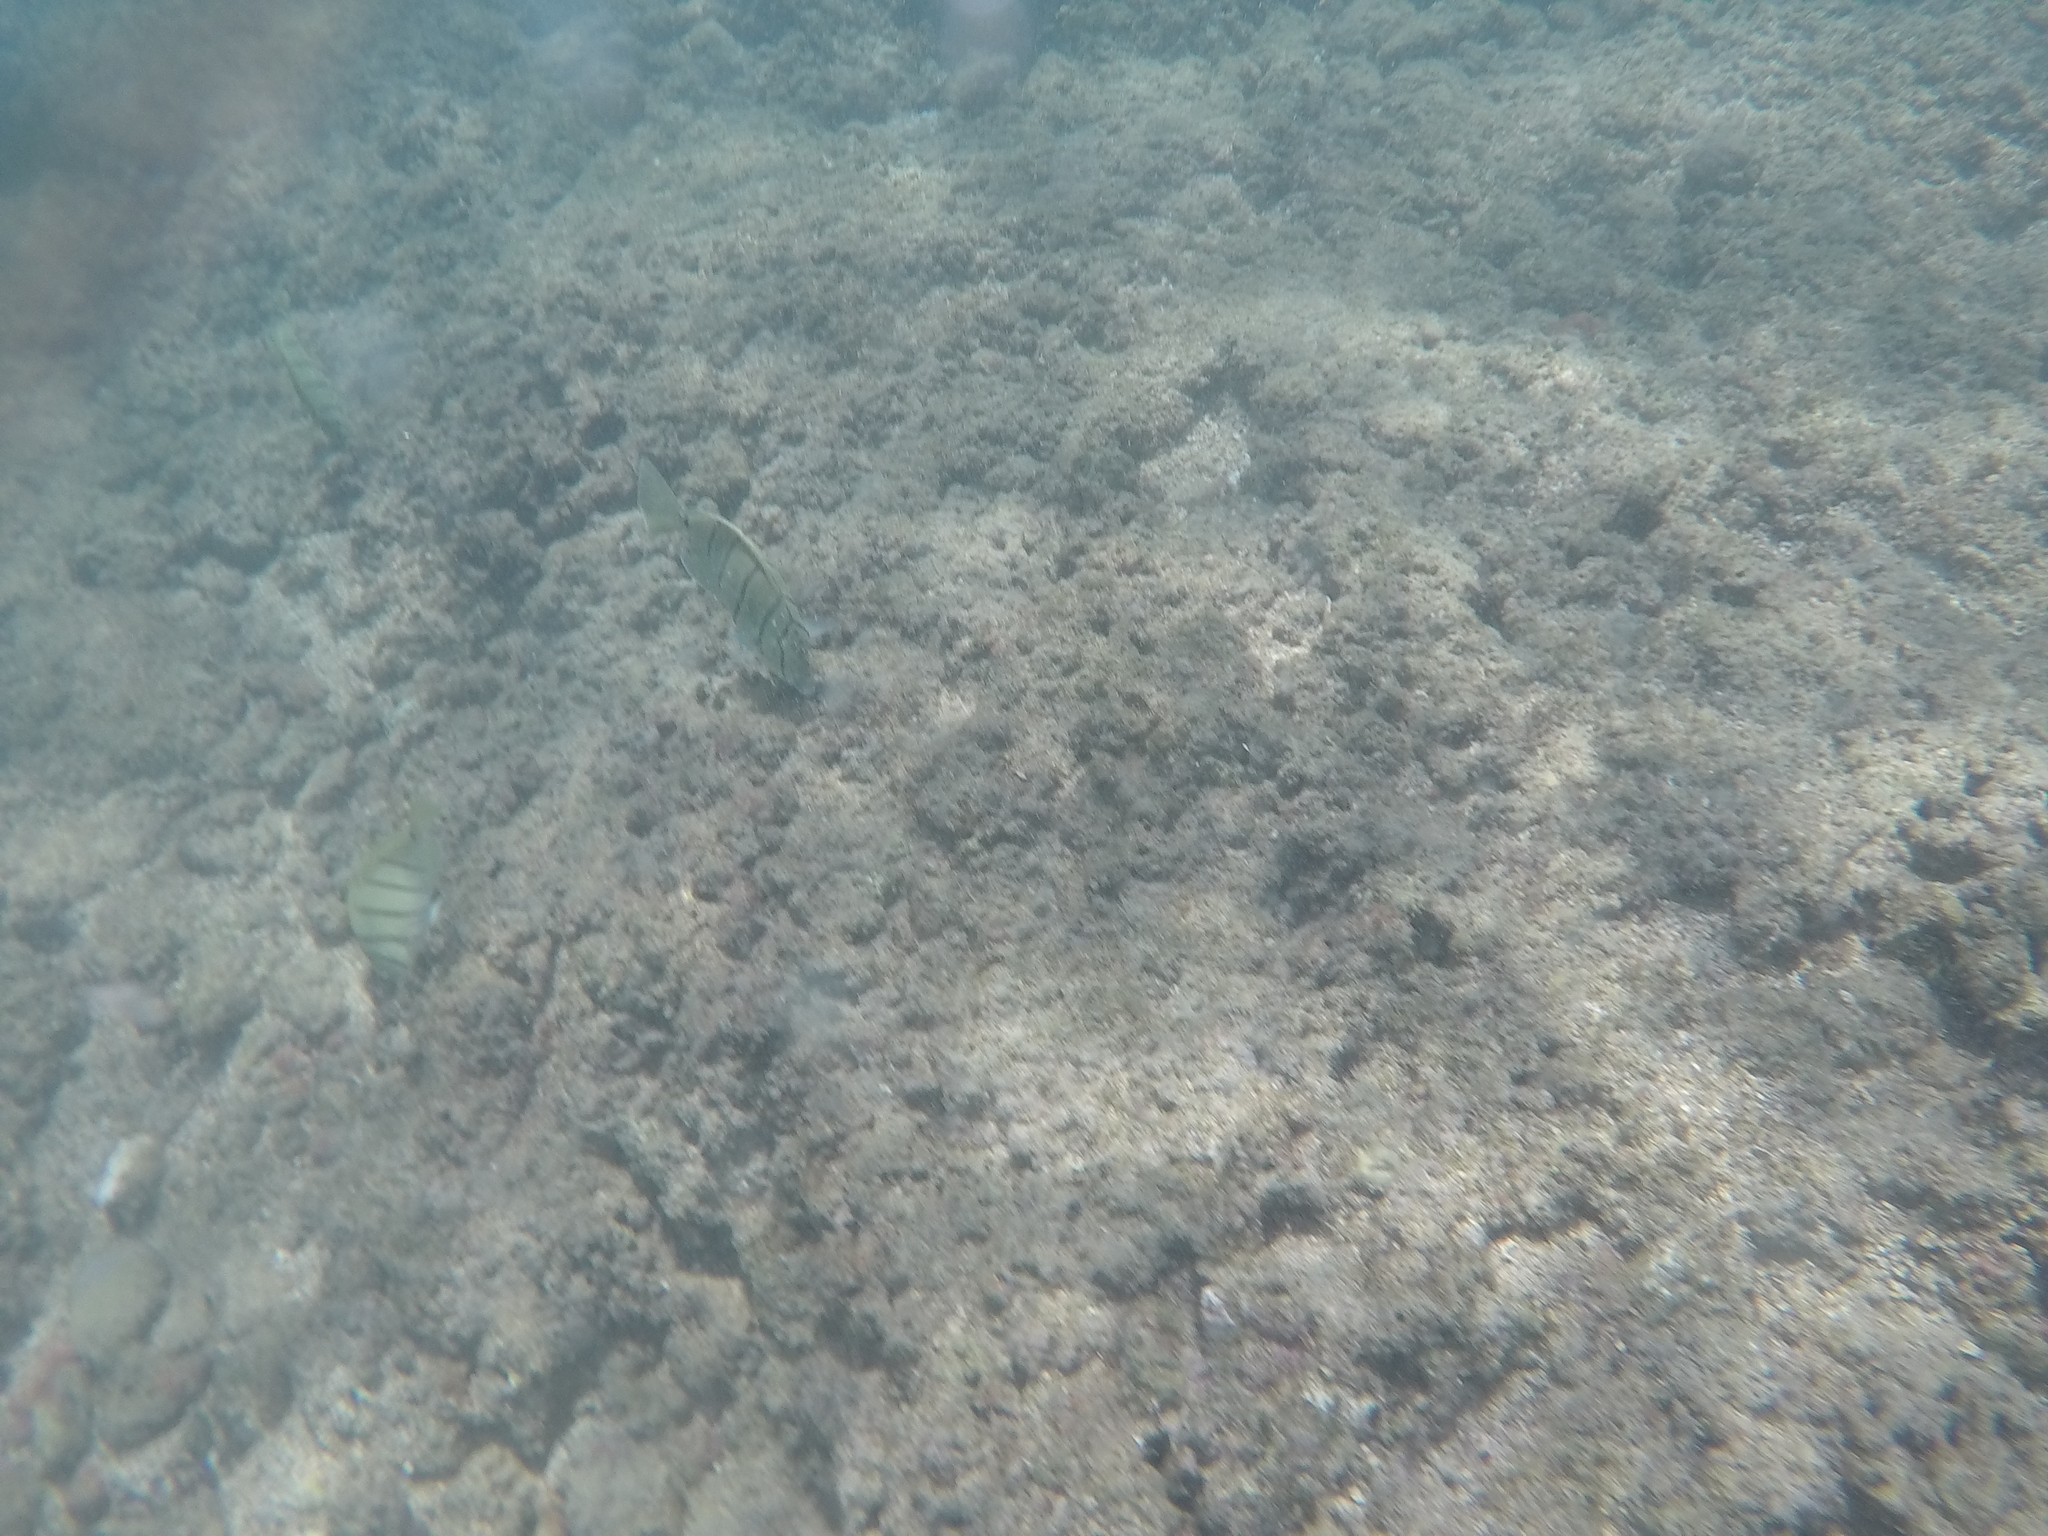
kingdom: Animalia
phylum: Chordata
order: Perciformes
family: Acanthuridae
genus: Acanthurus
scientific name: Acanthurus triostegus
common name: Convict surgeonfish
